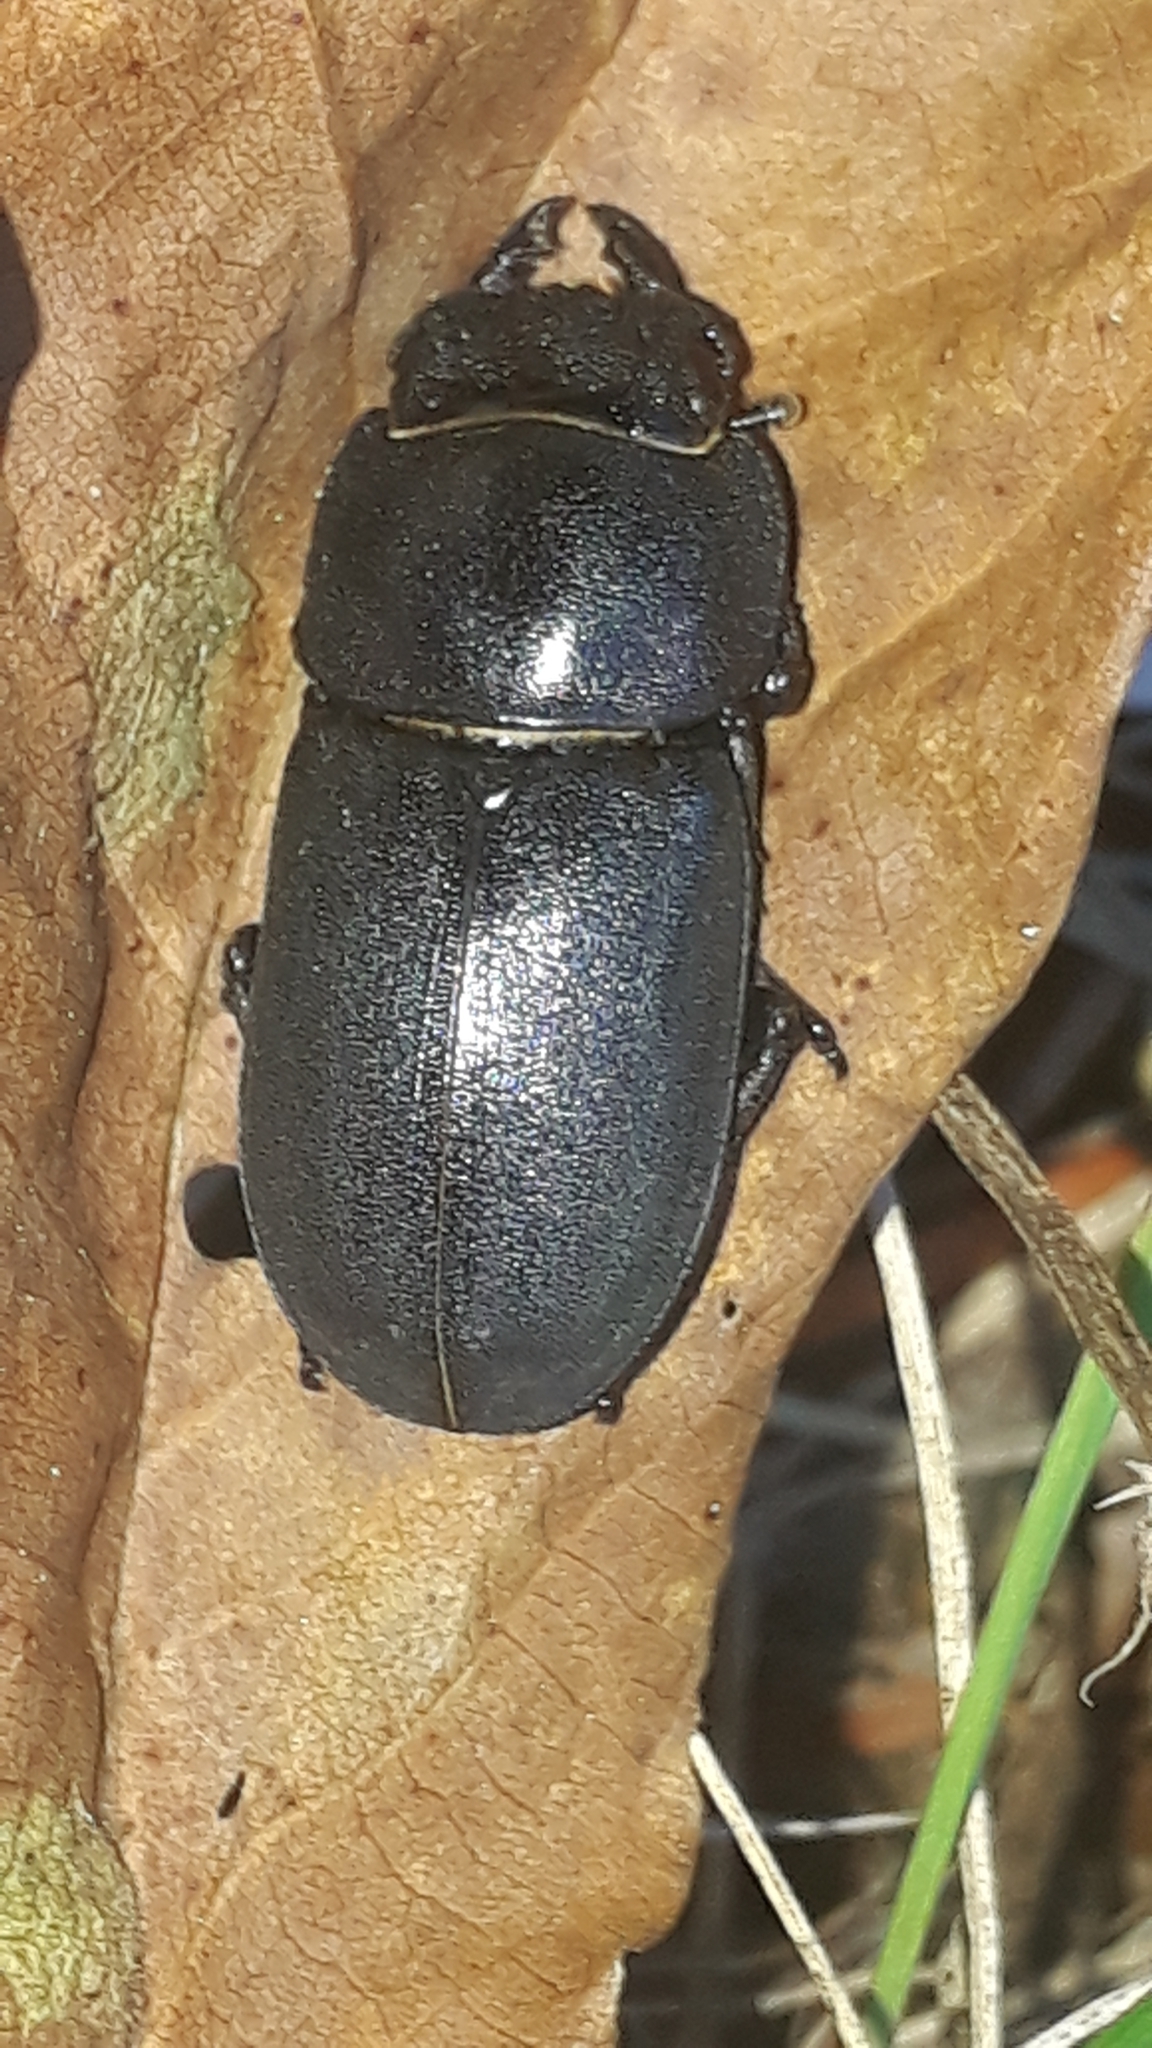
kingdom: Animalia
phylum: Arthropoda
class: Insecta
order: Coleoptera
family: Lucanidae
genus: Dorcus
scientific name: Dorcus parallelipipedus
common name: Lesser stag beetle
